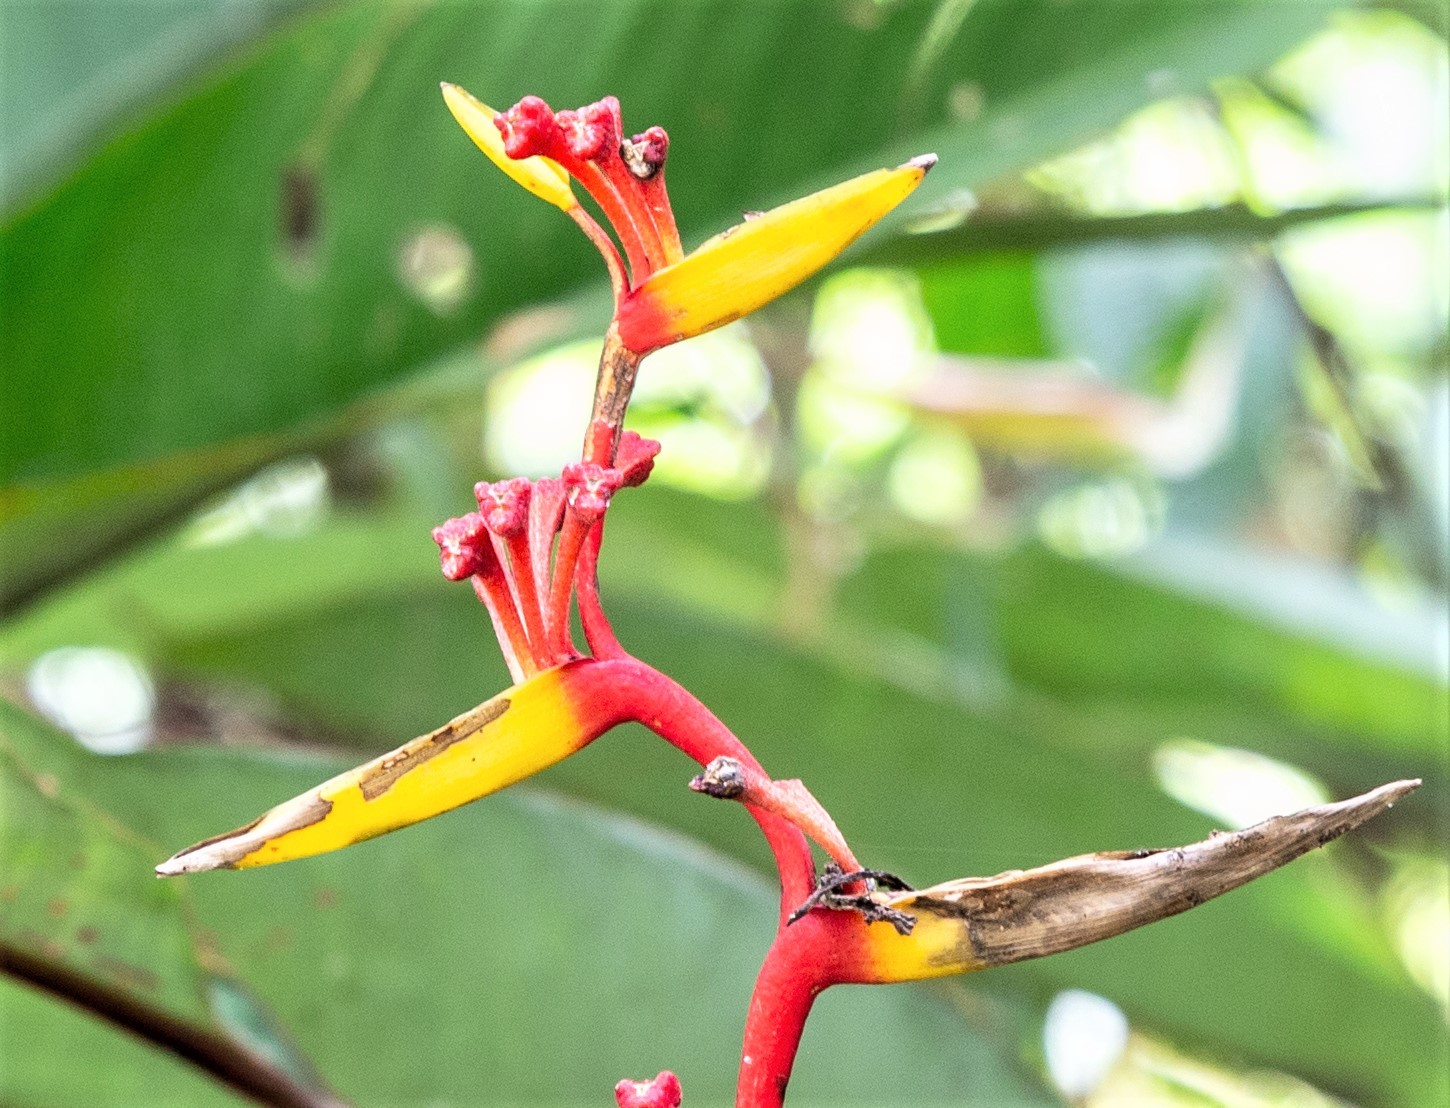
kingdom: Plantae
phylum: Tracheophyta
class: Liliopsida
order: Zingiberales
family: Heliconiaceae
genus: Heliconia
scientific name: Heliconia richardiana
